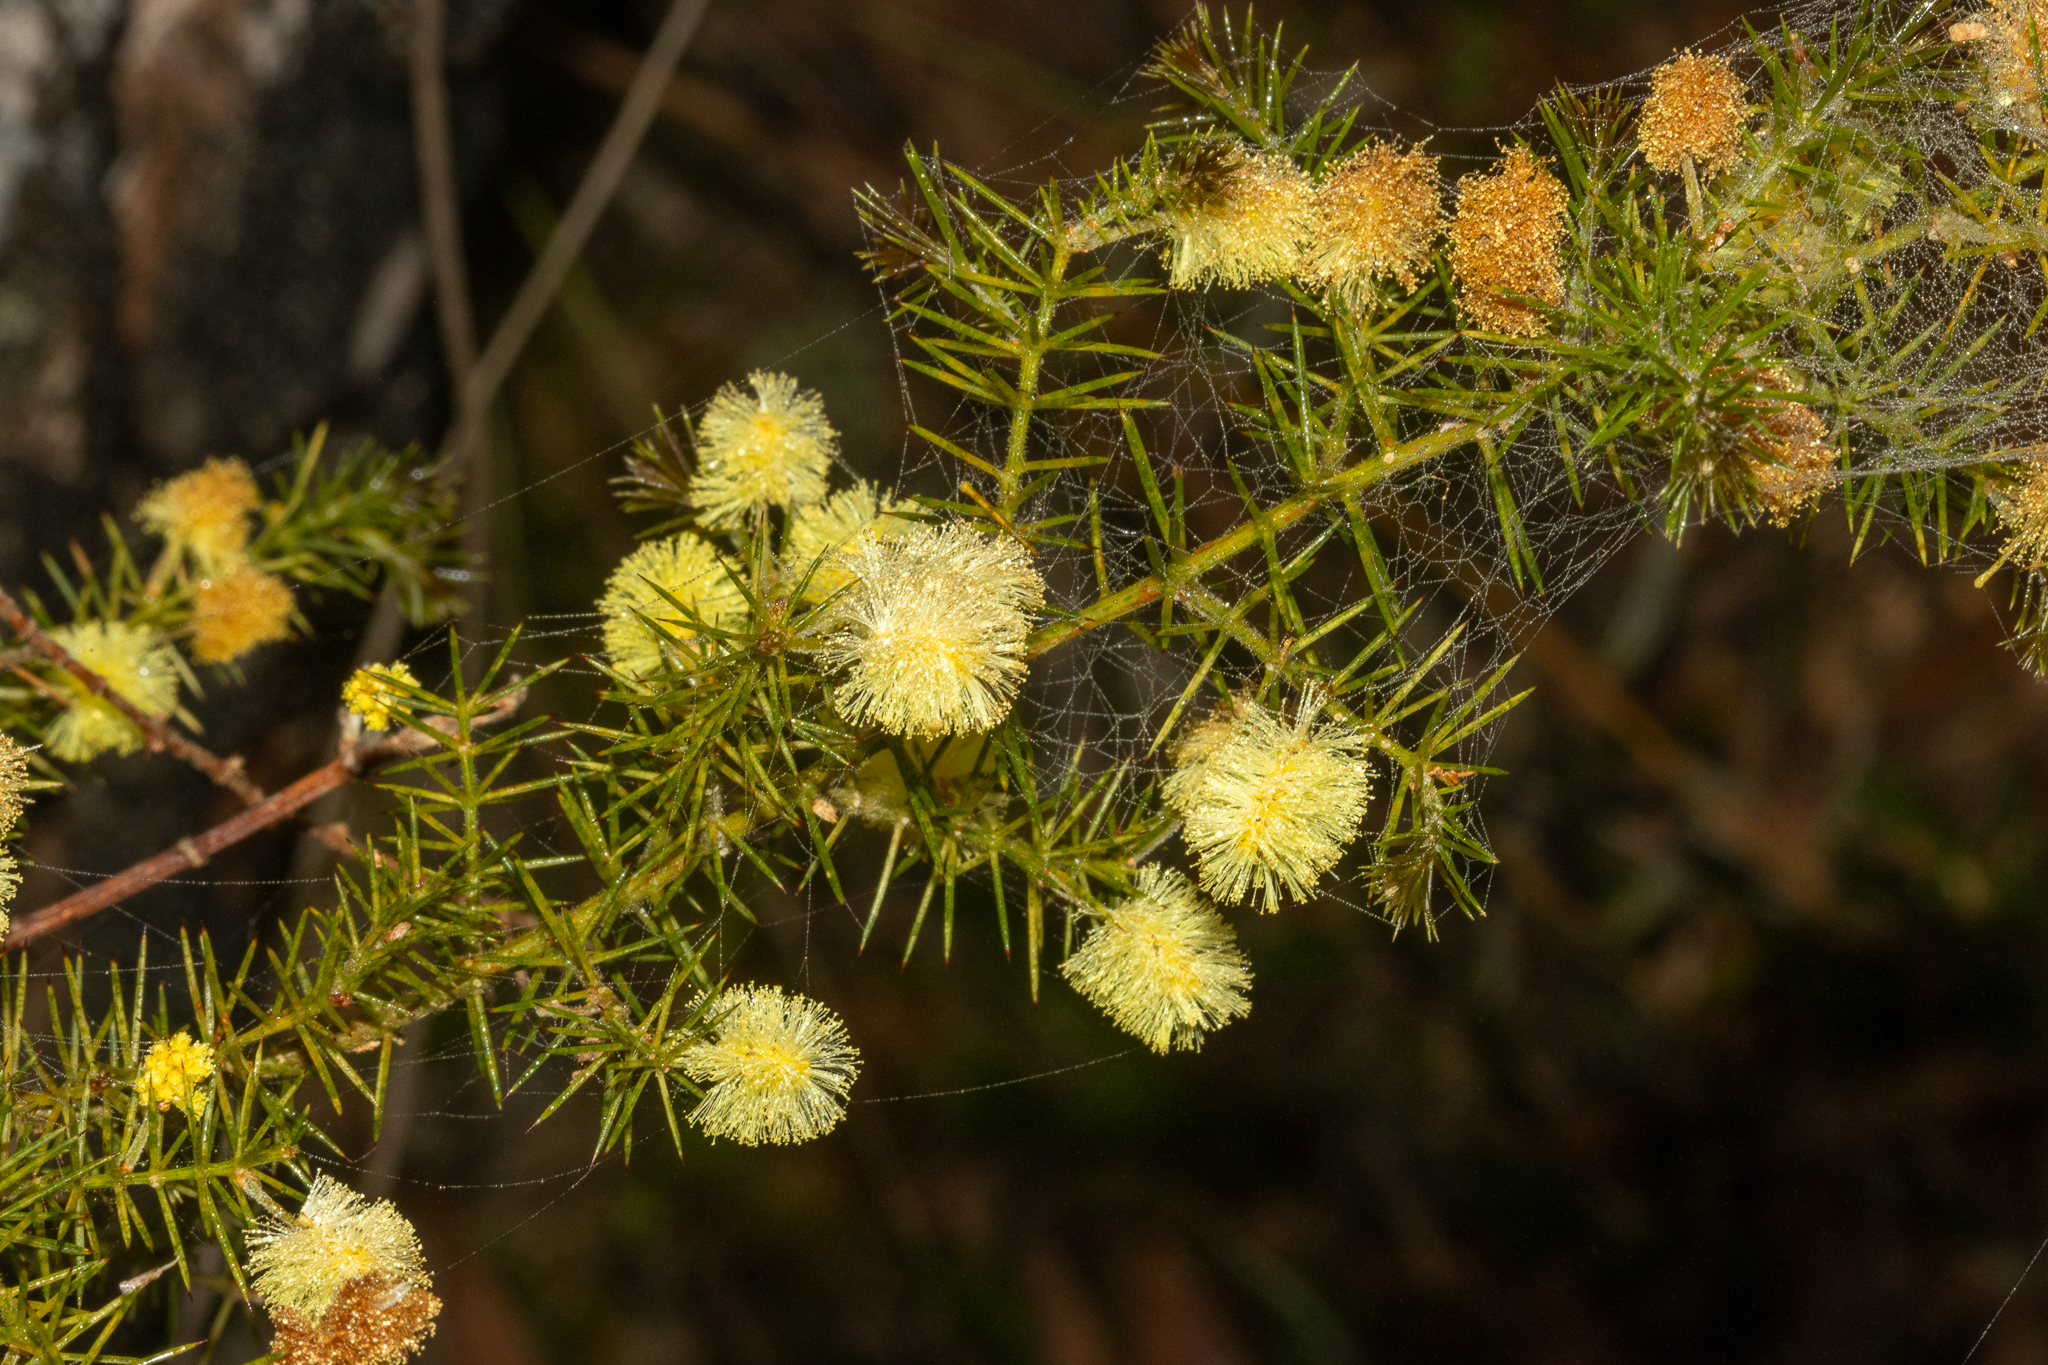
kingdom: Plantae
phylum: Tracheophyta
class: Magnoliopsida
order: Fabales
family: Fabaceae
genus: Acacia
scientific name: Acacia verticillata
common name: Prickly moses
